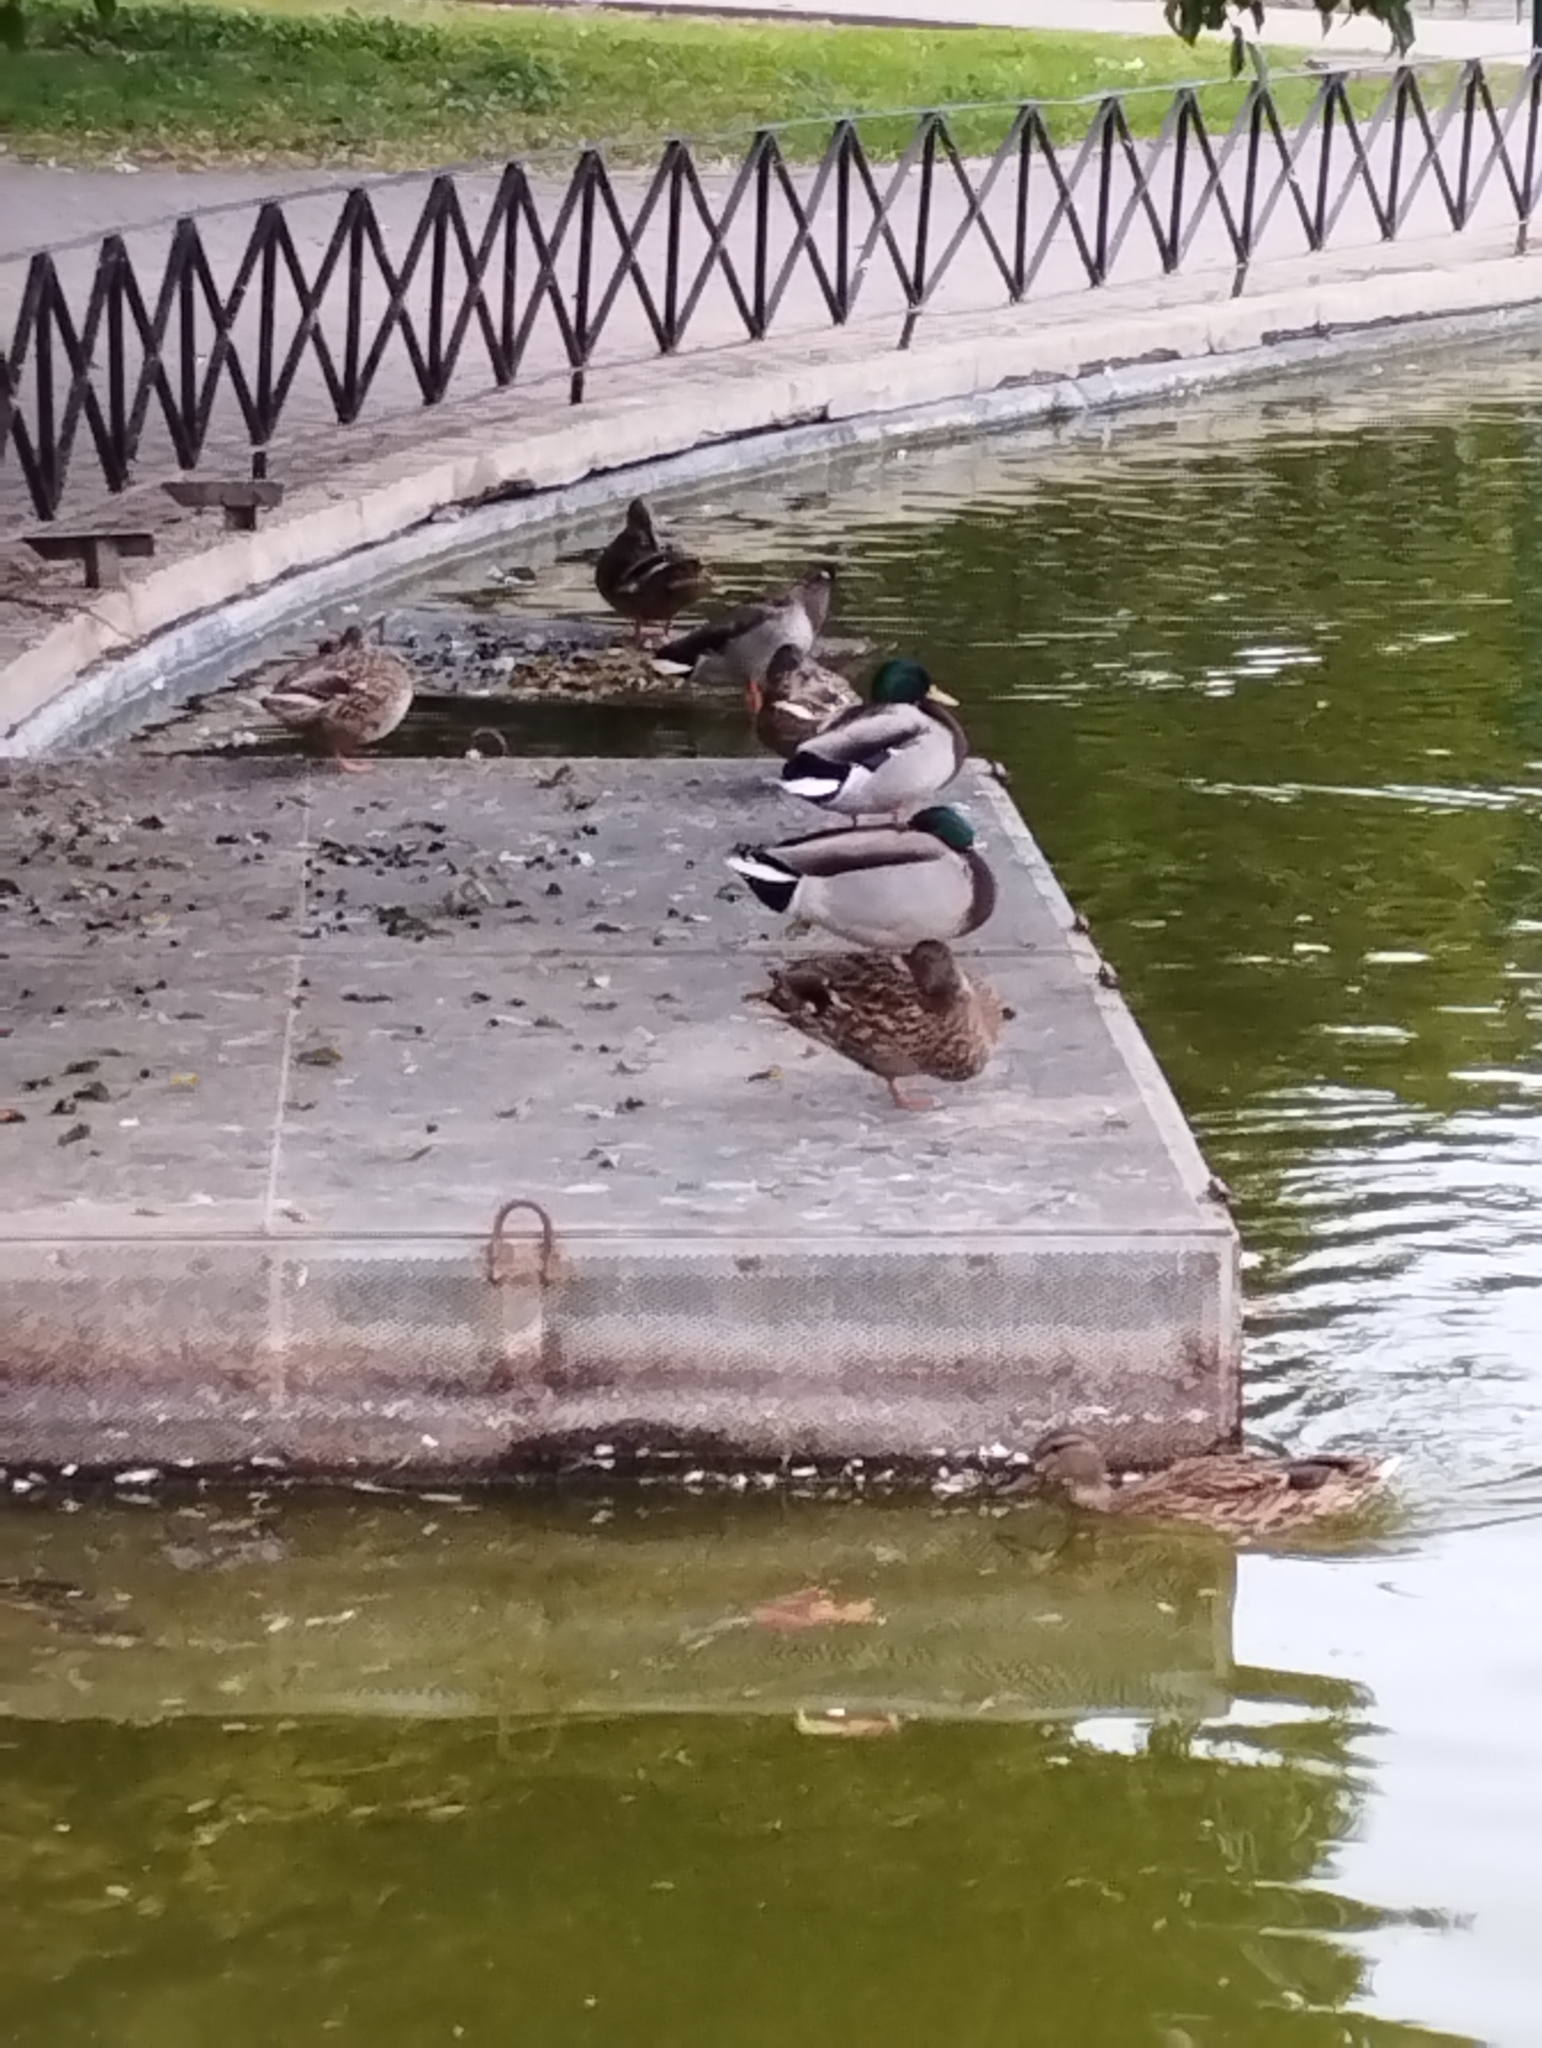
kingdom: Animalia
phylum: Chordata
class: Aves
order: Anseriformes
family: Anatidae
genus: Anas
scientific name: Anas platyrhynchos
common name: Mallard
